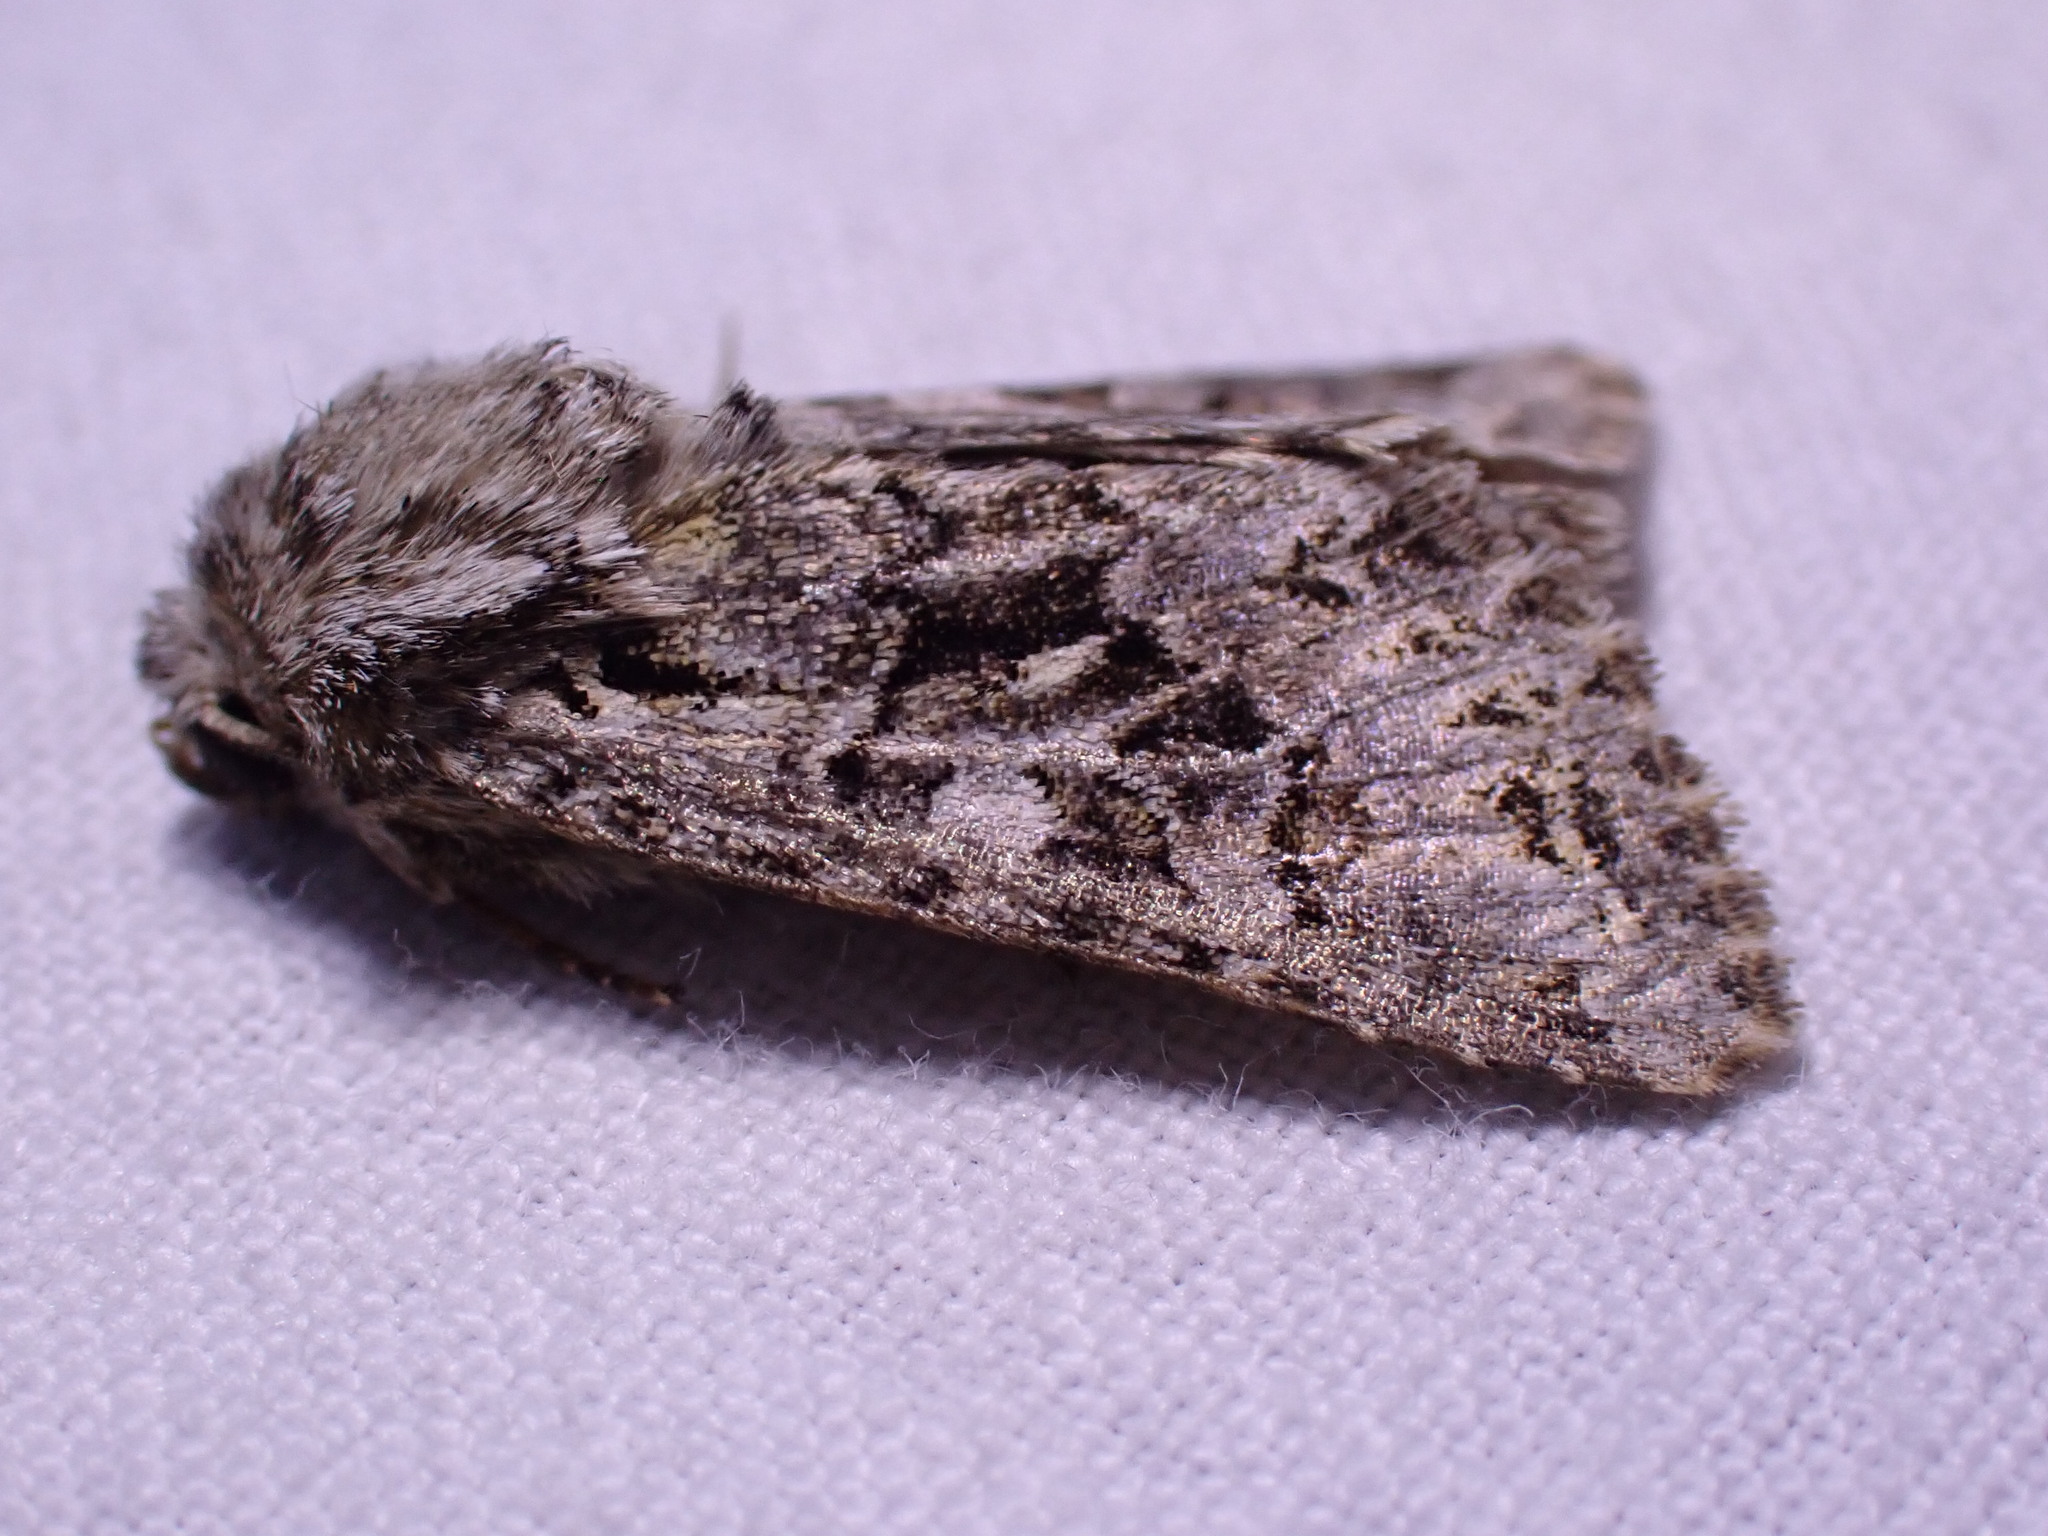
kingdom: Animalia
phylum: Arthropoda
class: Insecta
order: Lepidoptera
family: Noctuidae
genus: Hada
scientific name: Hada plebeja
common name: Shears
